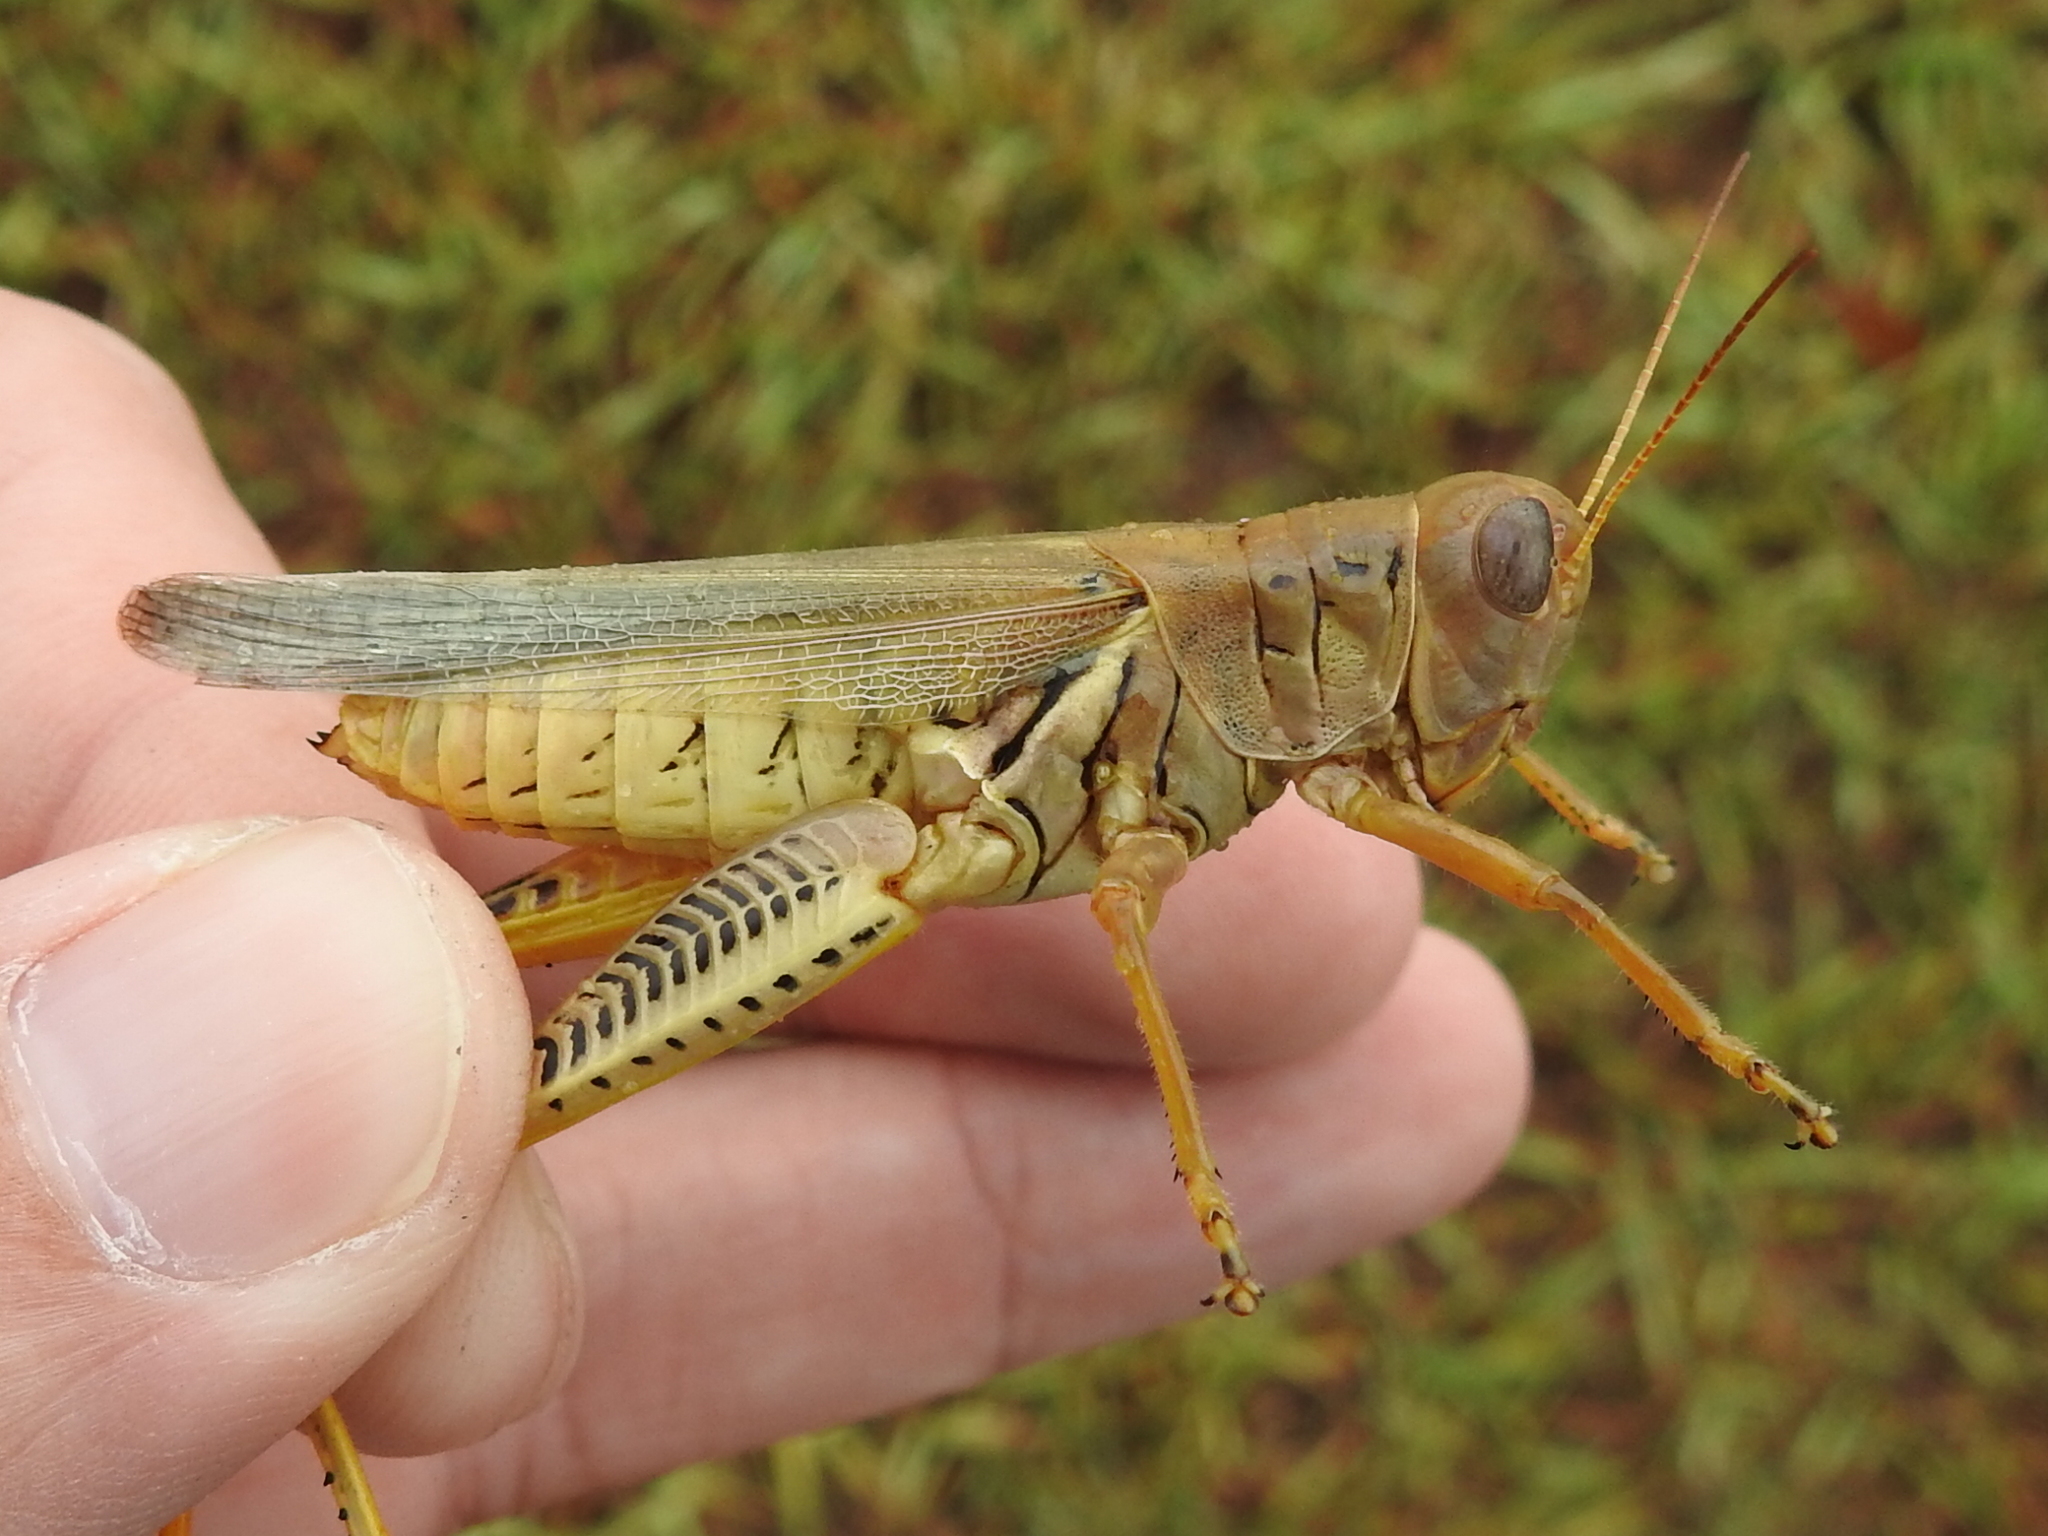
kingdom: Animalia
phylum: Arthropoda
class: Insecta
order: Orthoptera
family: Acrididae
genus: Melanoplus
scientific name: Melanoplus differentialis
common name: Differential grasshopper
